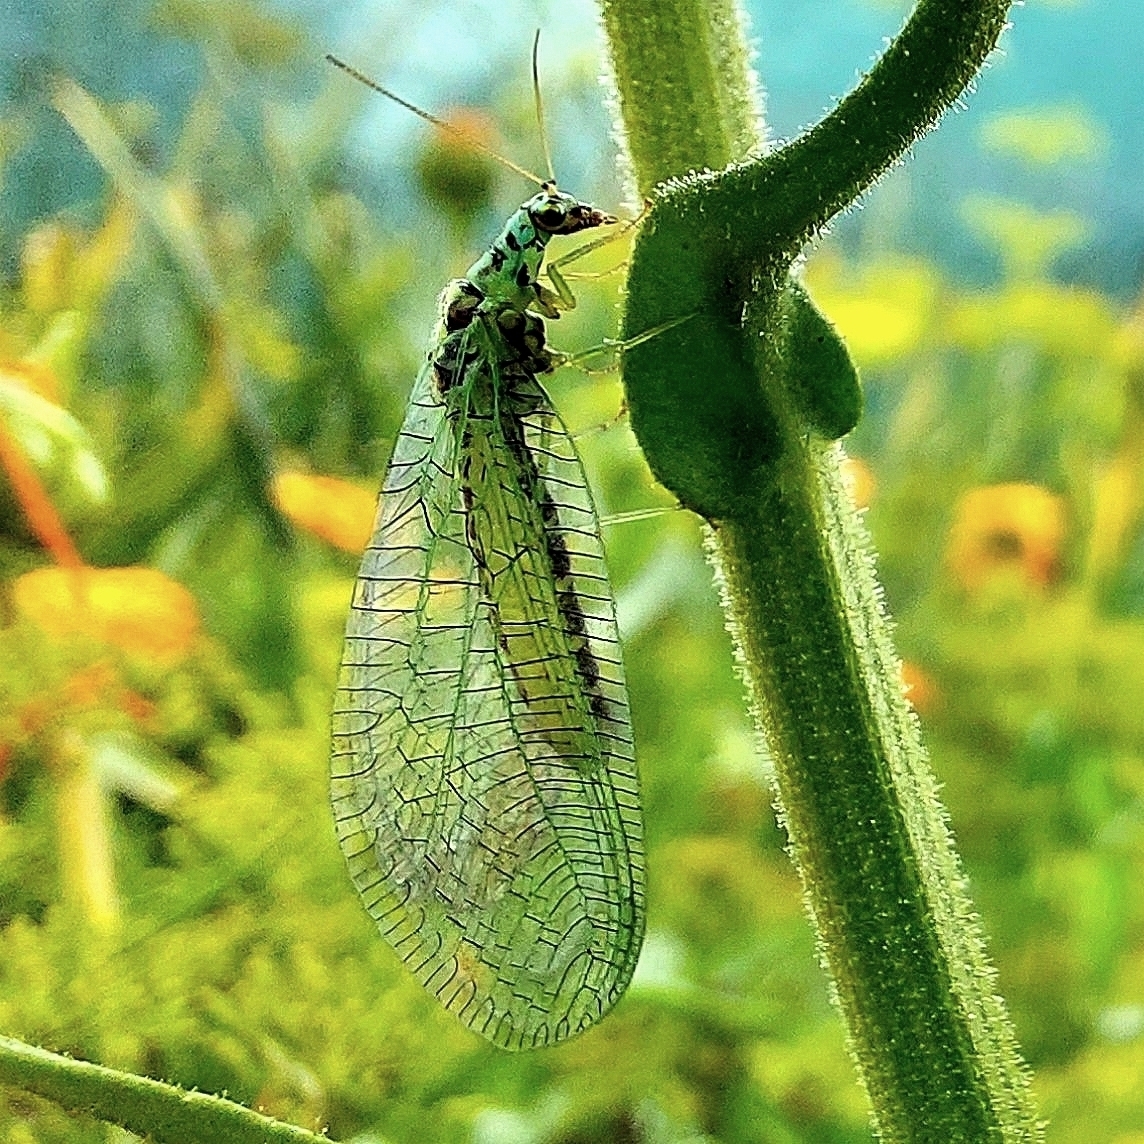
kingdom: Animalia
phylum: Arthropoda
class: Insecta
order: Neuroptera
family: Chrysopidae
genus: Chrysopa
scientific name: Chrysopa perla
